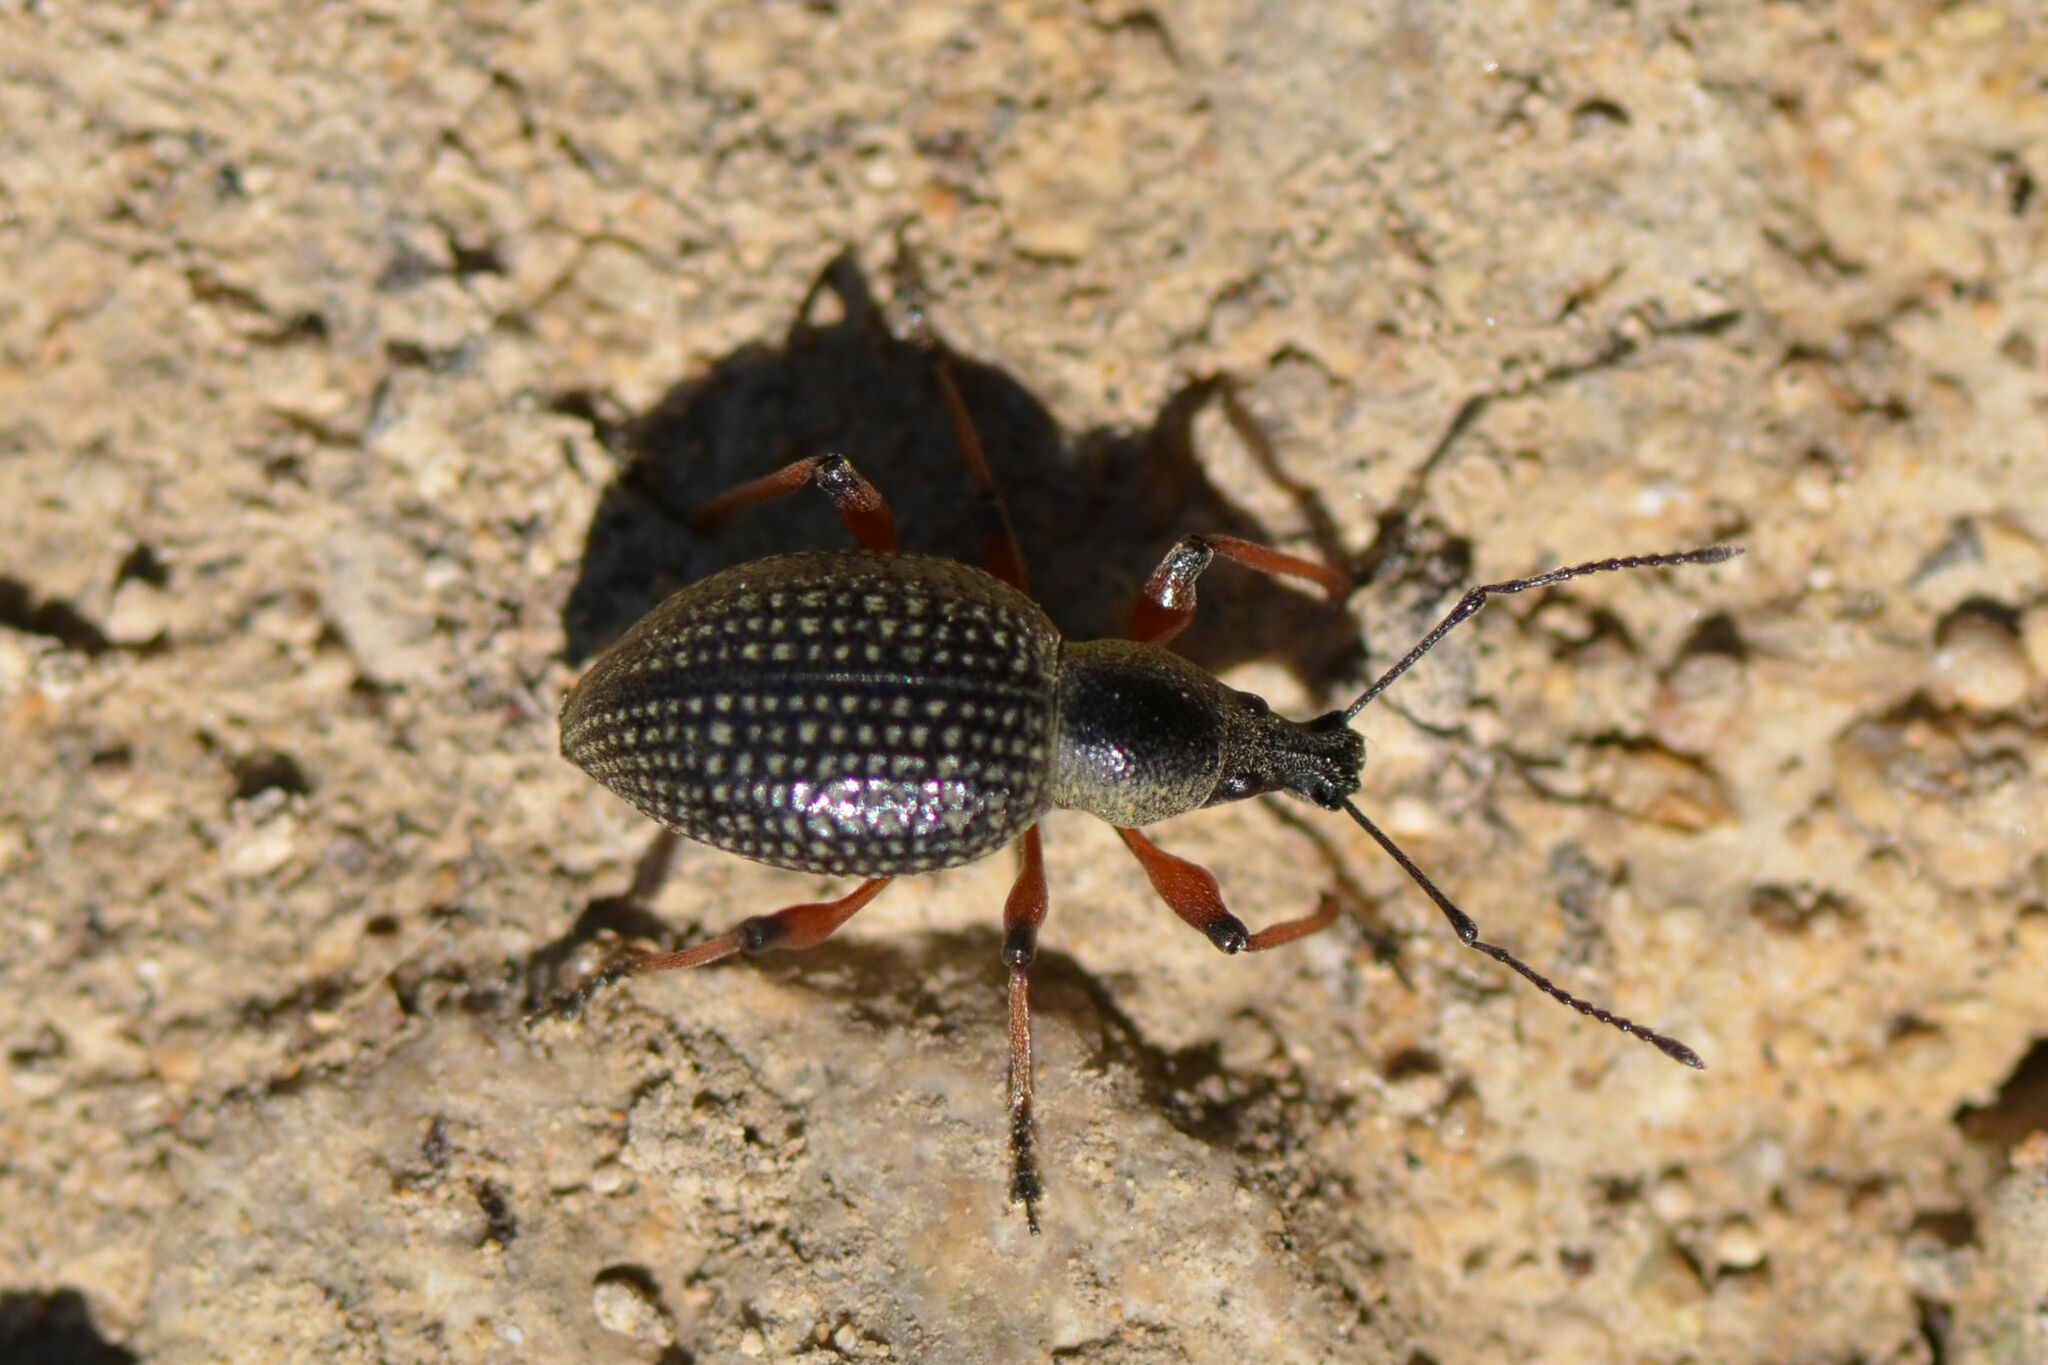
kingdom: Animalia
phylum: Arthropoda
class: Insecta
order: Coleoptera
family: Curculionidae
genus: Otiorhynchus
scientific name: Otiorhynchus coecus
